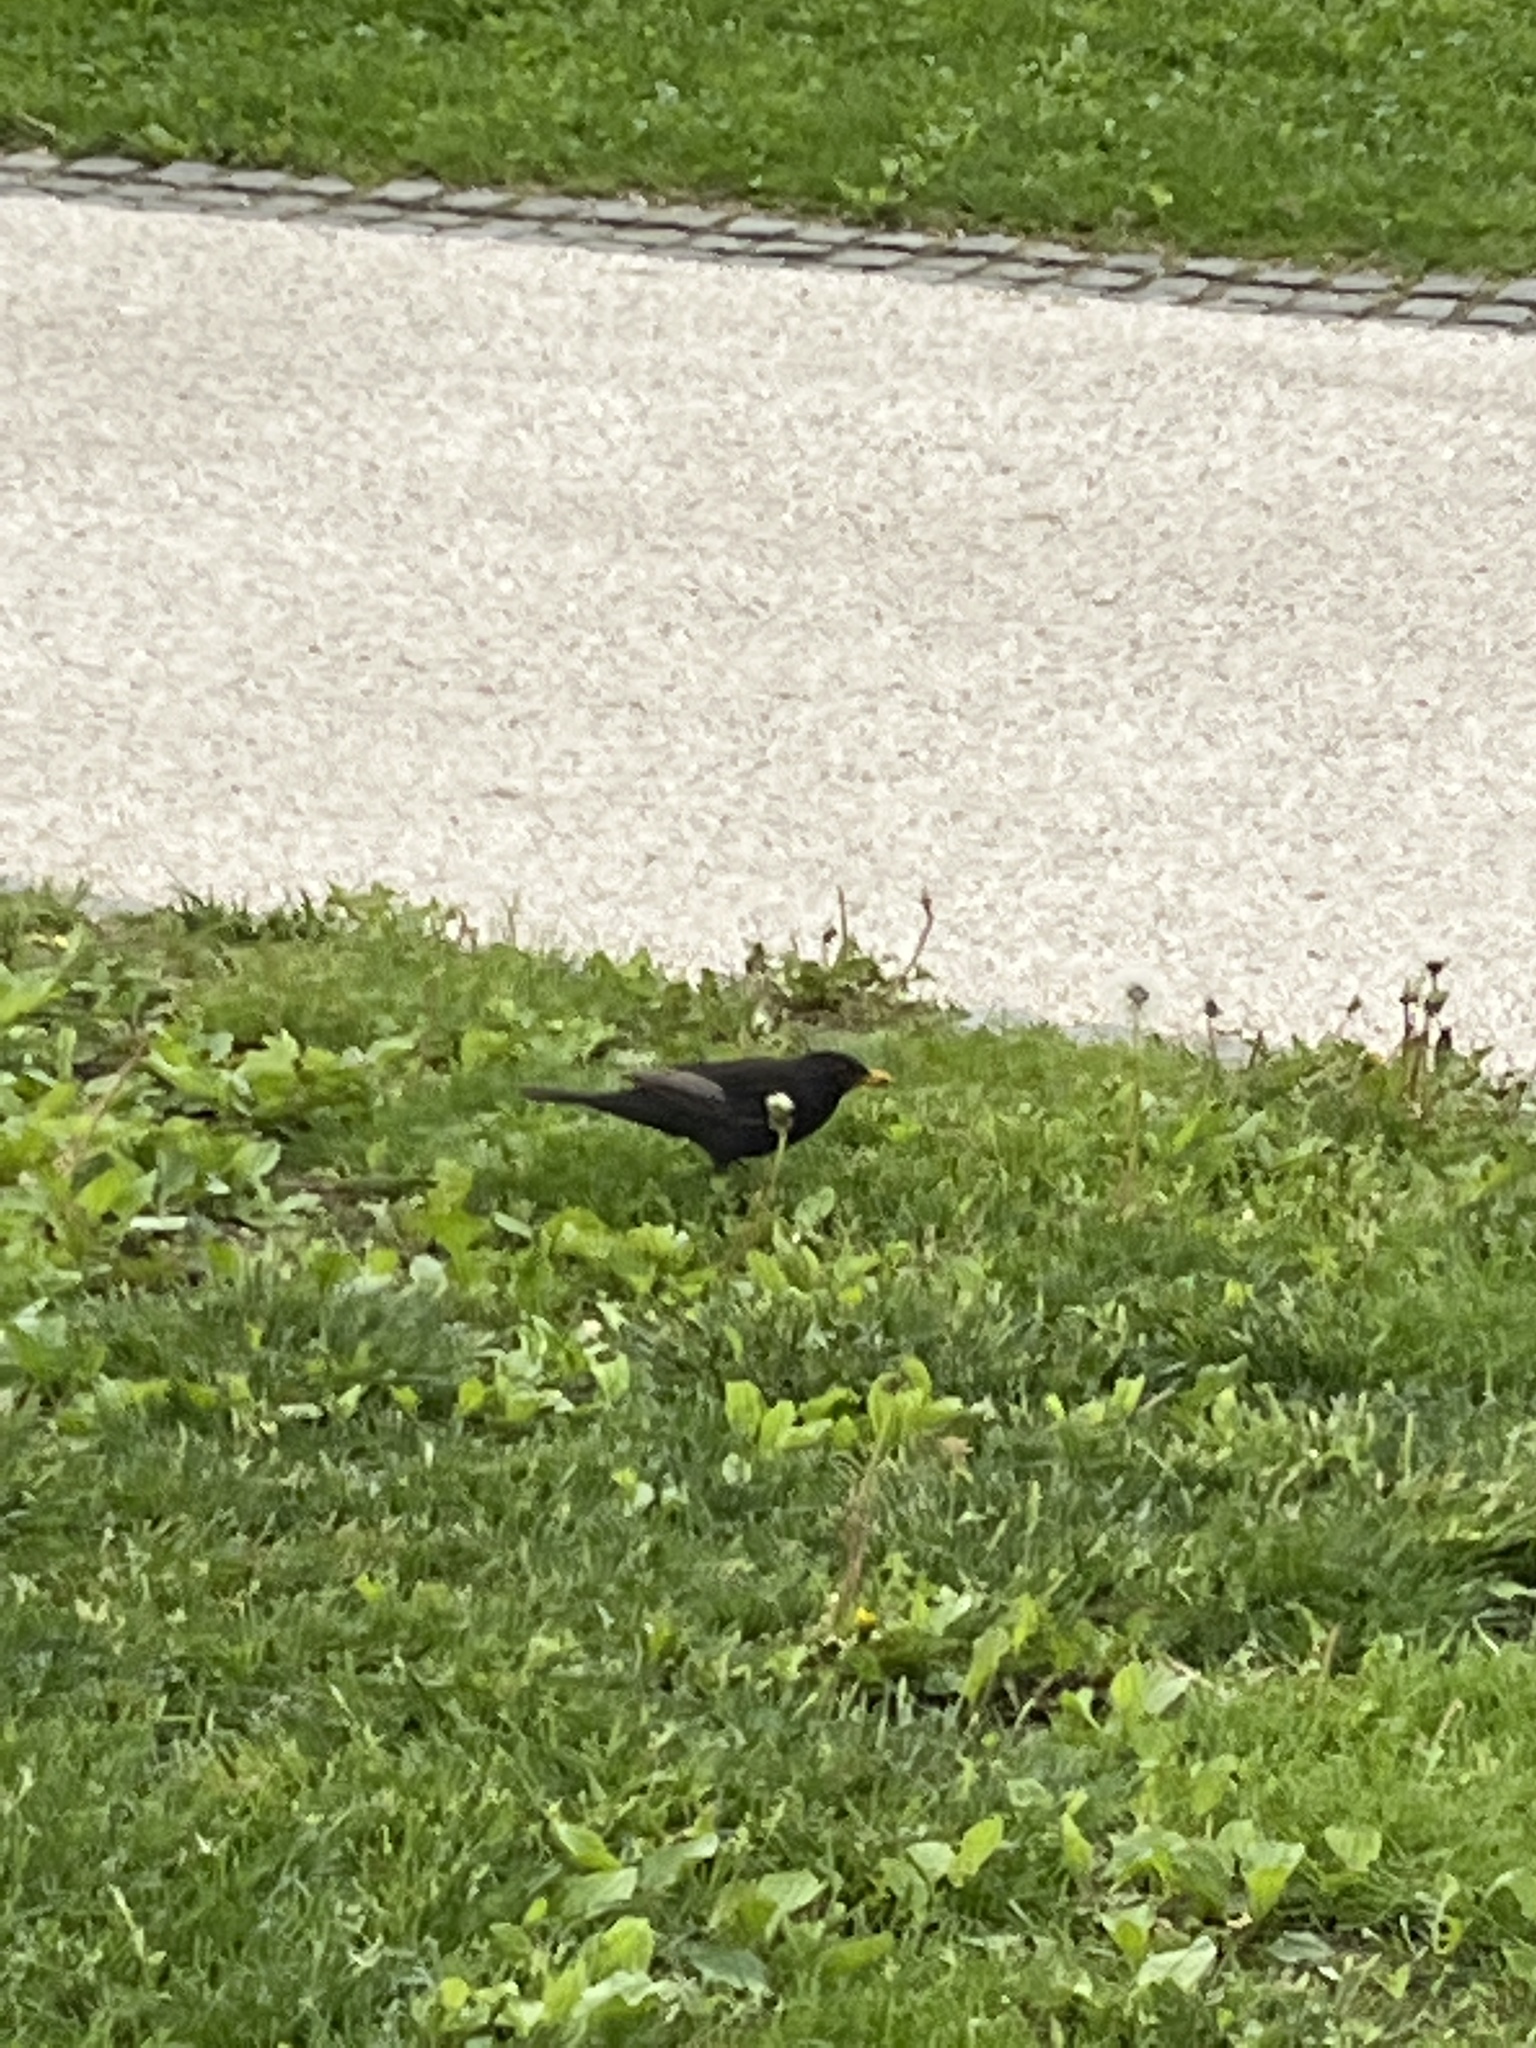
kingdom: Animalia
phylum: Chordata
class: Aves
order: Passeriformes
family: Turdidae
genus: Turdus
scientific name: Turdus merula
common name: Common blackbird
